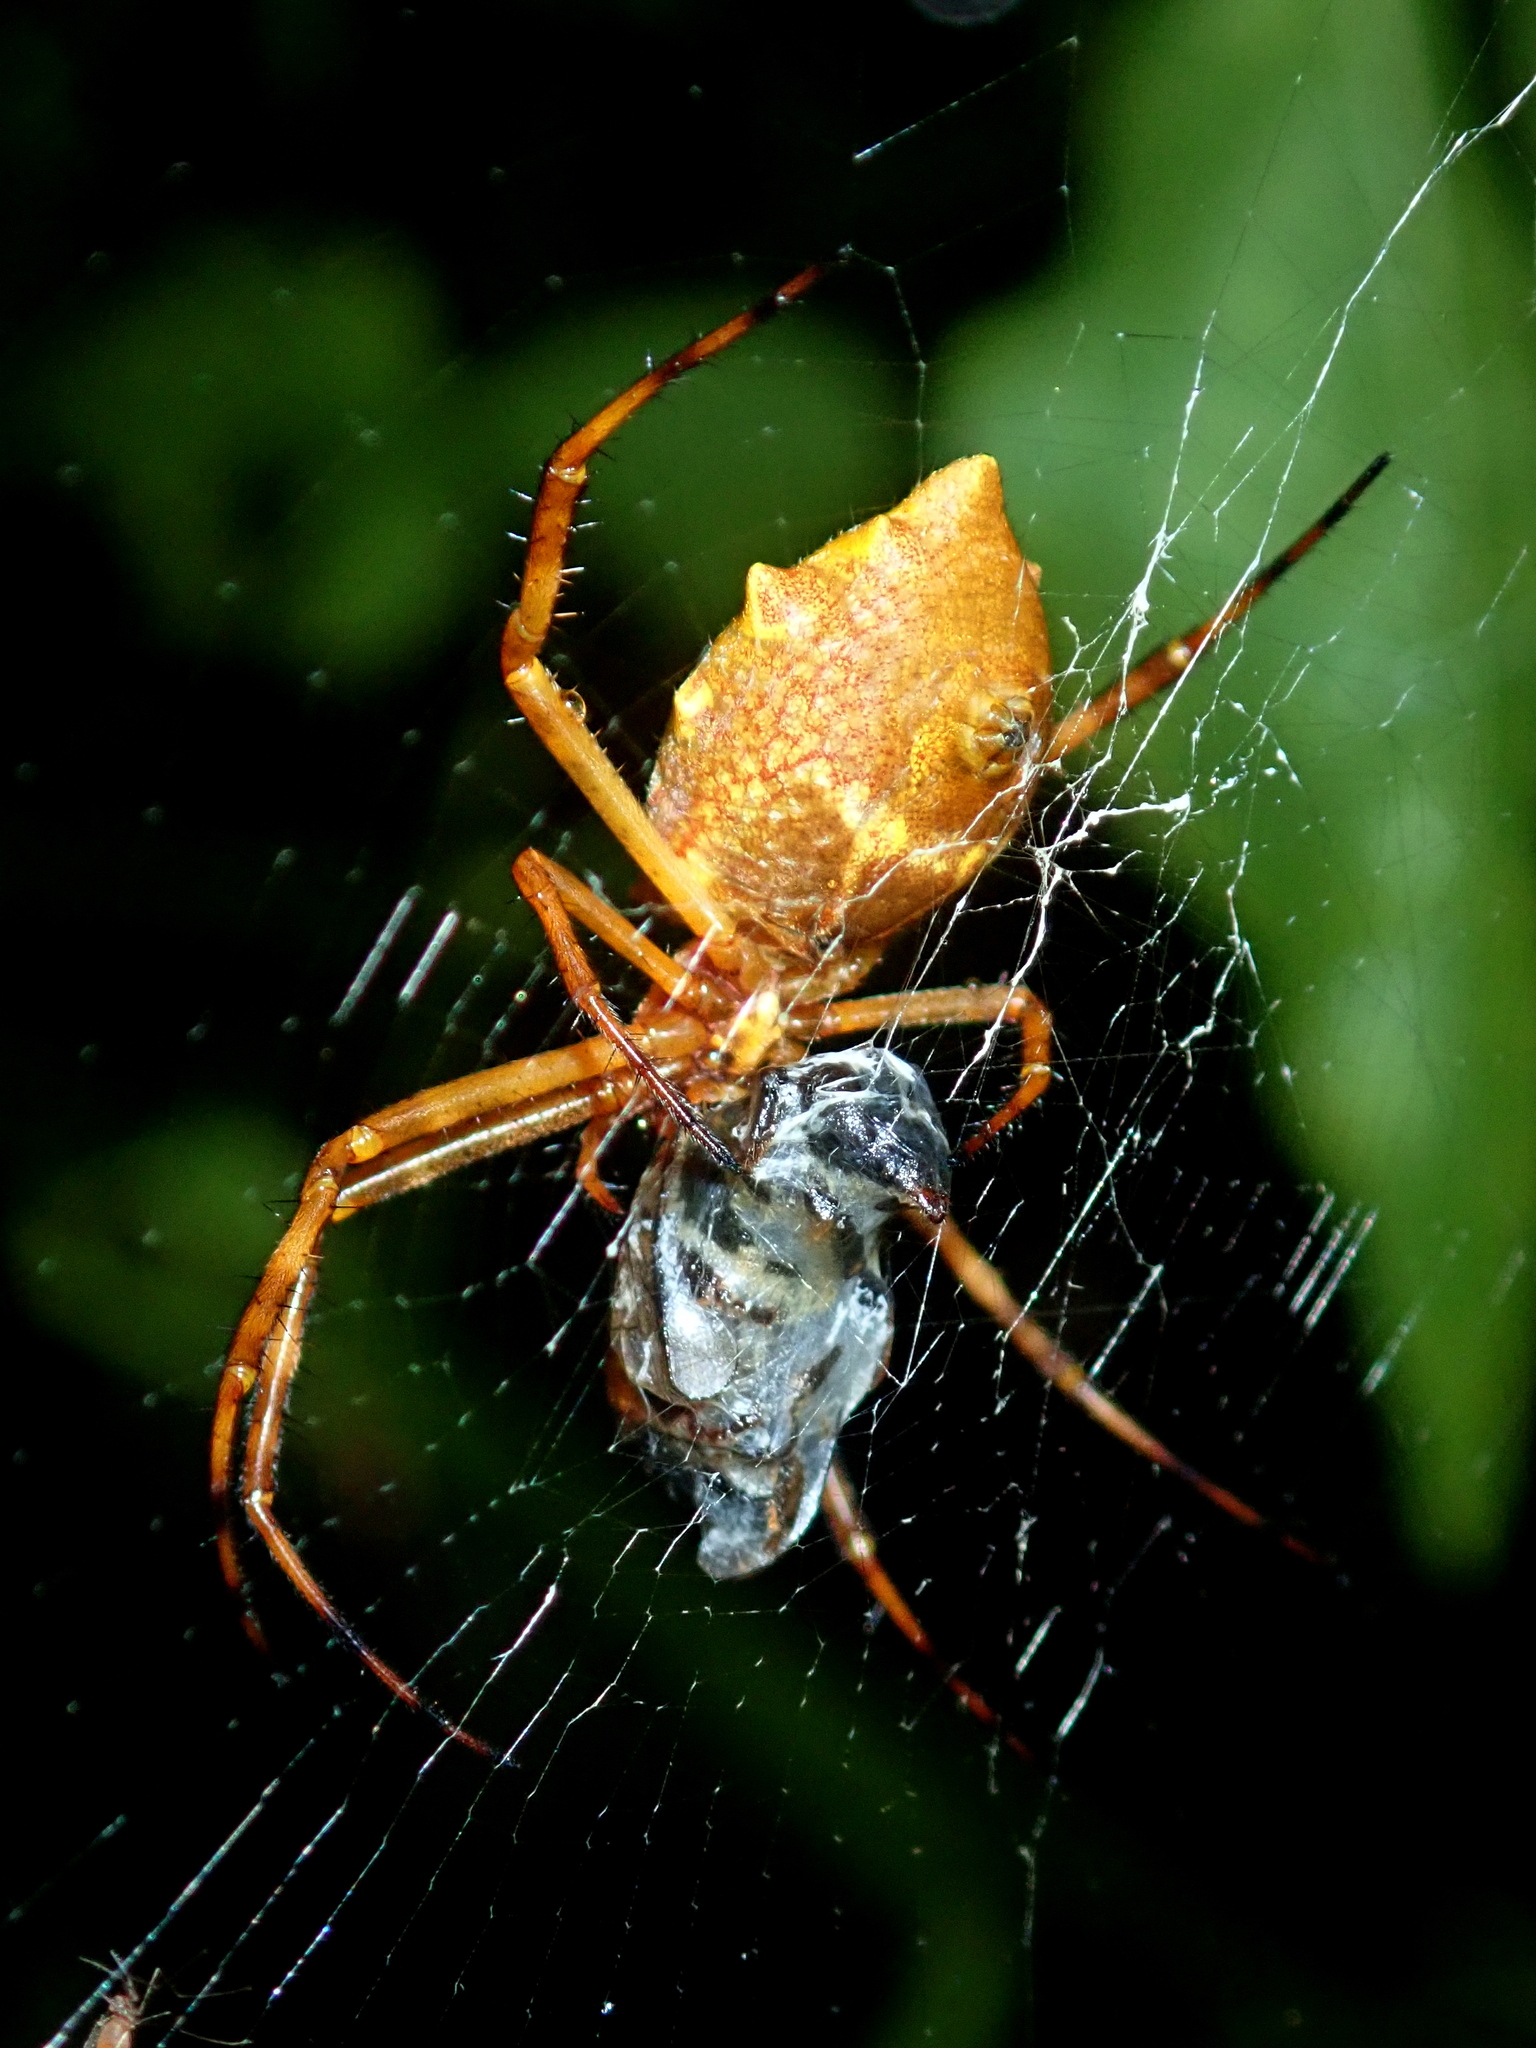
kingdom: Animalia
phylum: Arthropoda
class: Arachnida
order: Araneae
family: Araneidae
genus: Argiope
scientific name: Argiope argentata
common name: Orb weavers
